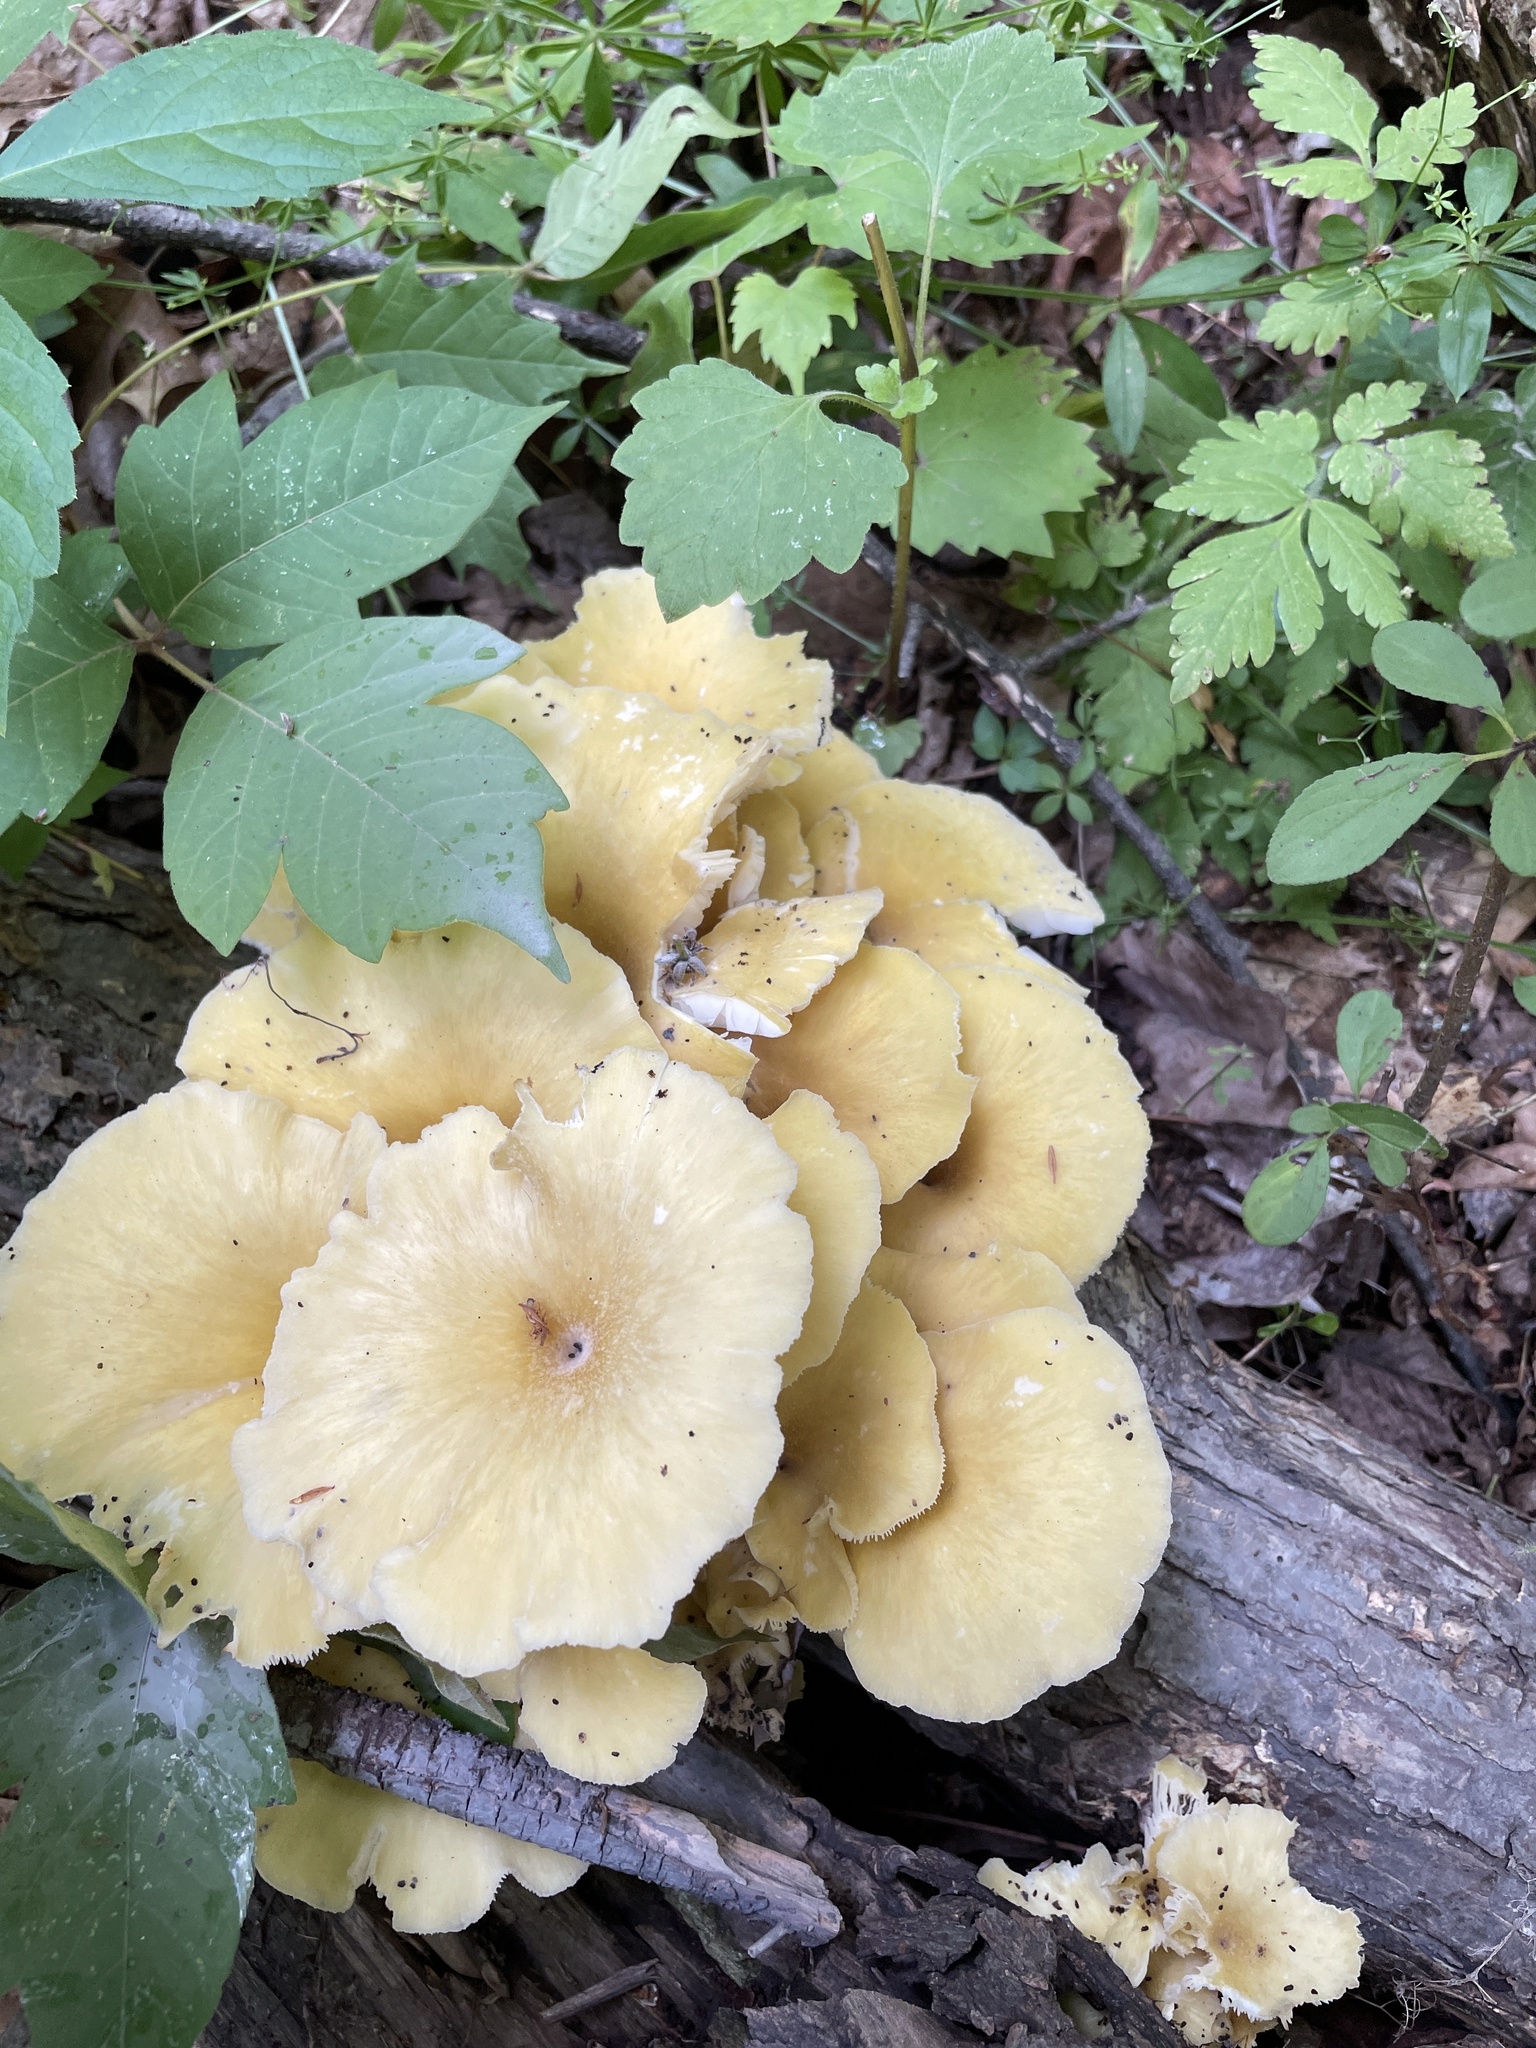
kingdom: Fungi
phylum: Basidiomycota
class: Agaricomycetes
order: Agaricales
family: Pleurotaceae
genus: Pleurotus
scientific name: Pleurotus citrinopileatus
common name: Golden oyster mushroom
